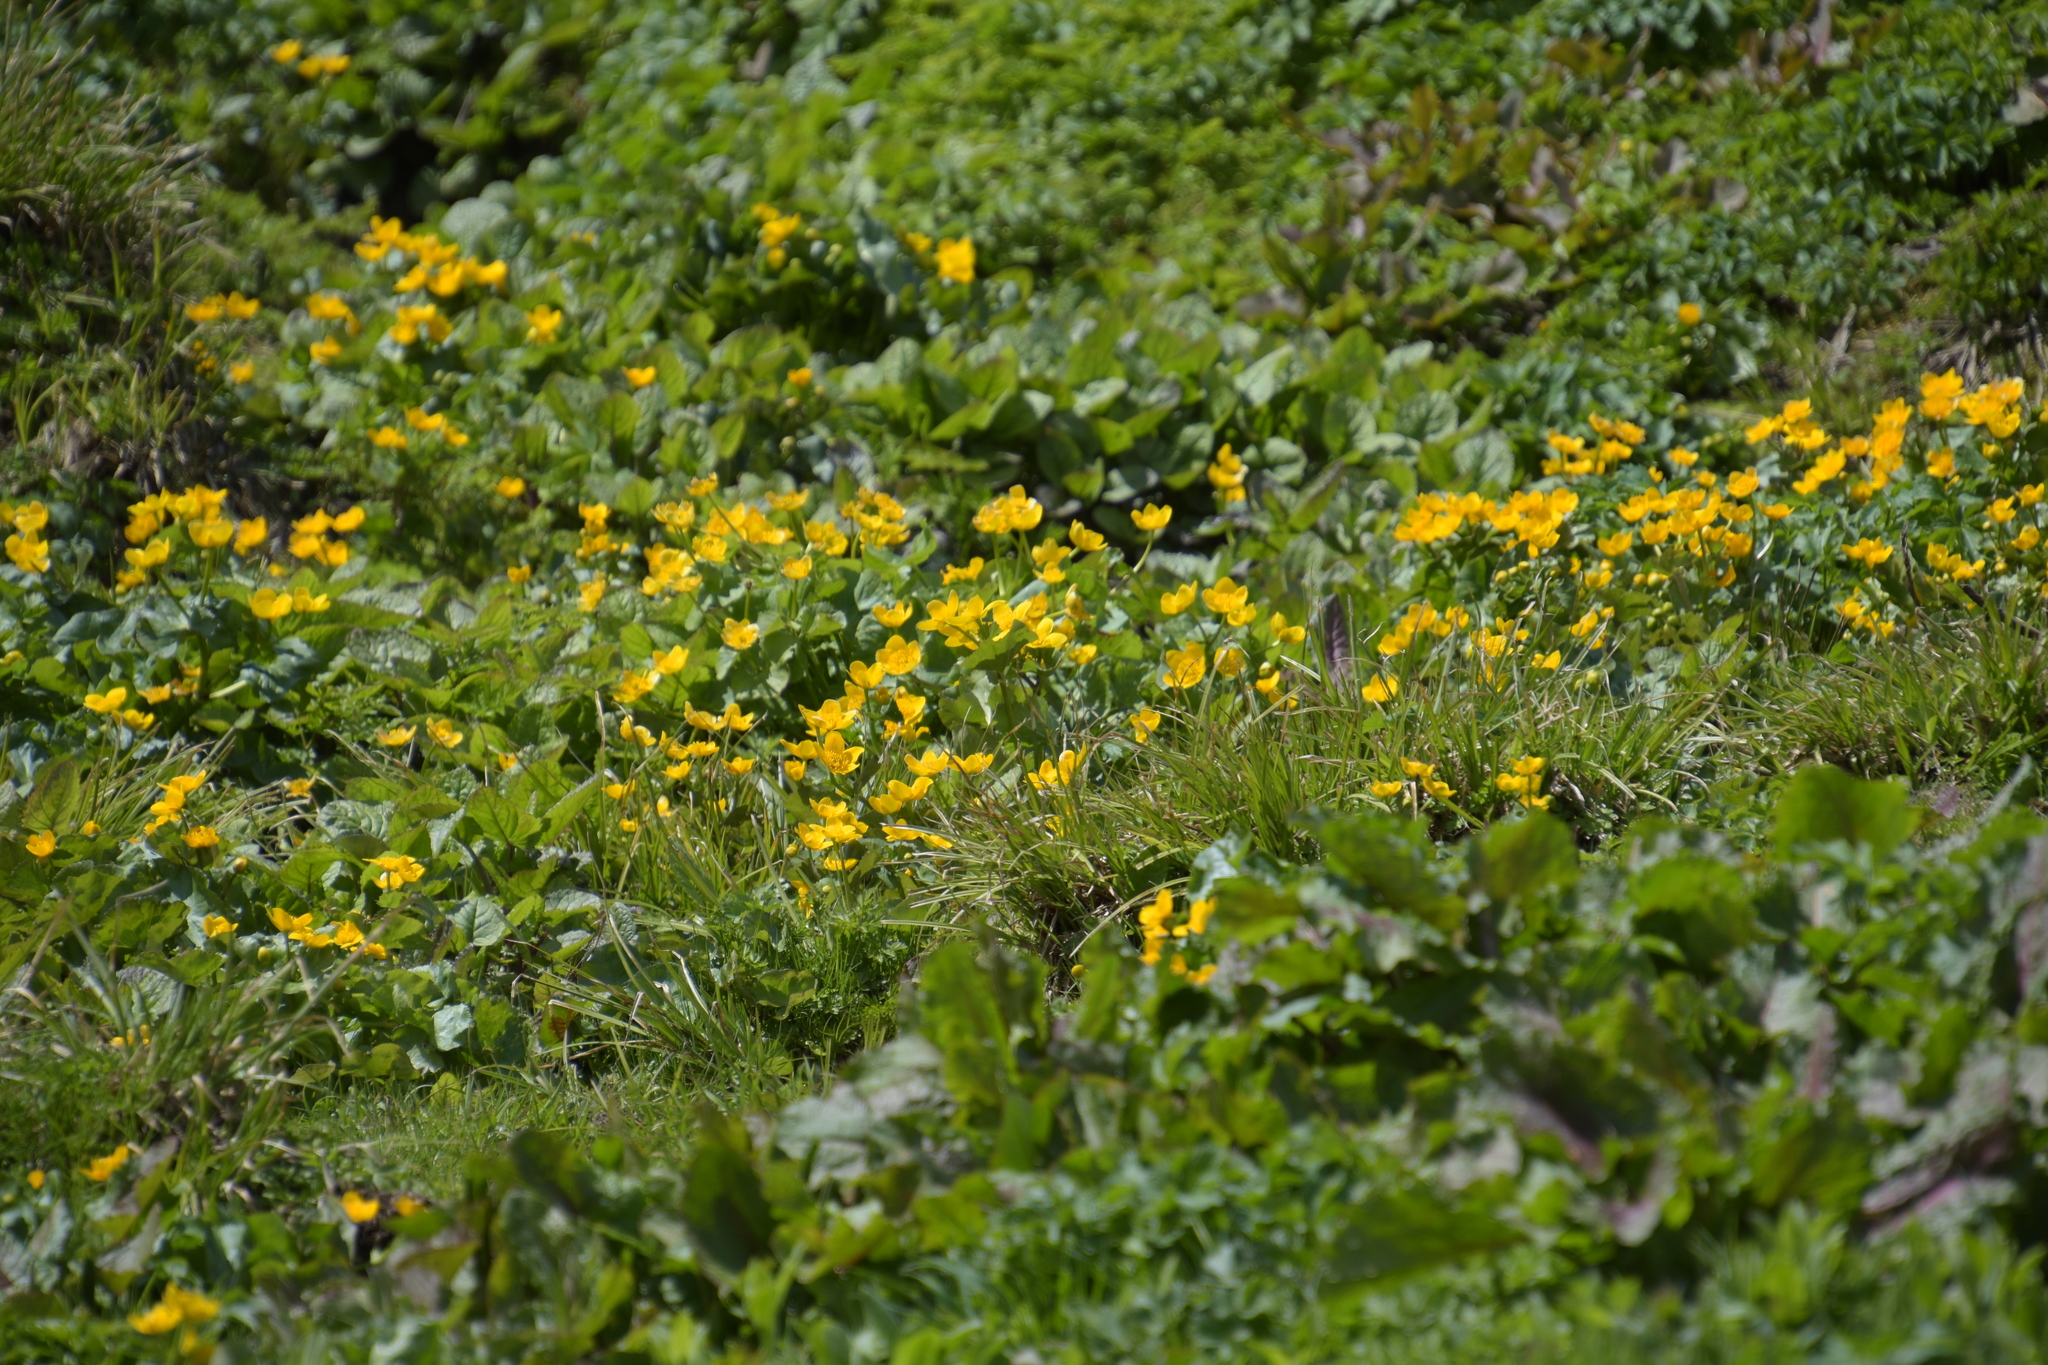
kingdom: Plantae
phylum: Tracheophyta
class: Magnoliopsida
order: Ranunculales
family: Ranunculaceae
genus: Caltha
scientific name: Caltha palustris
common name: Marsh marigold
